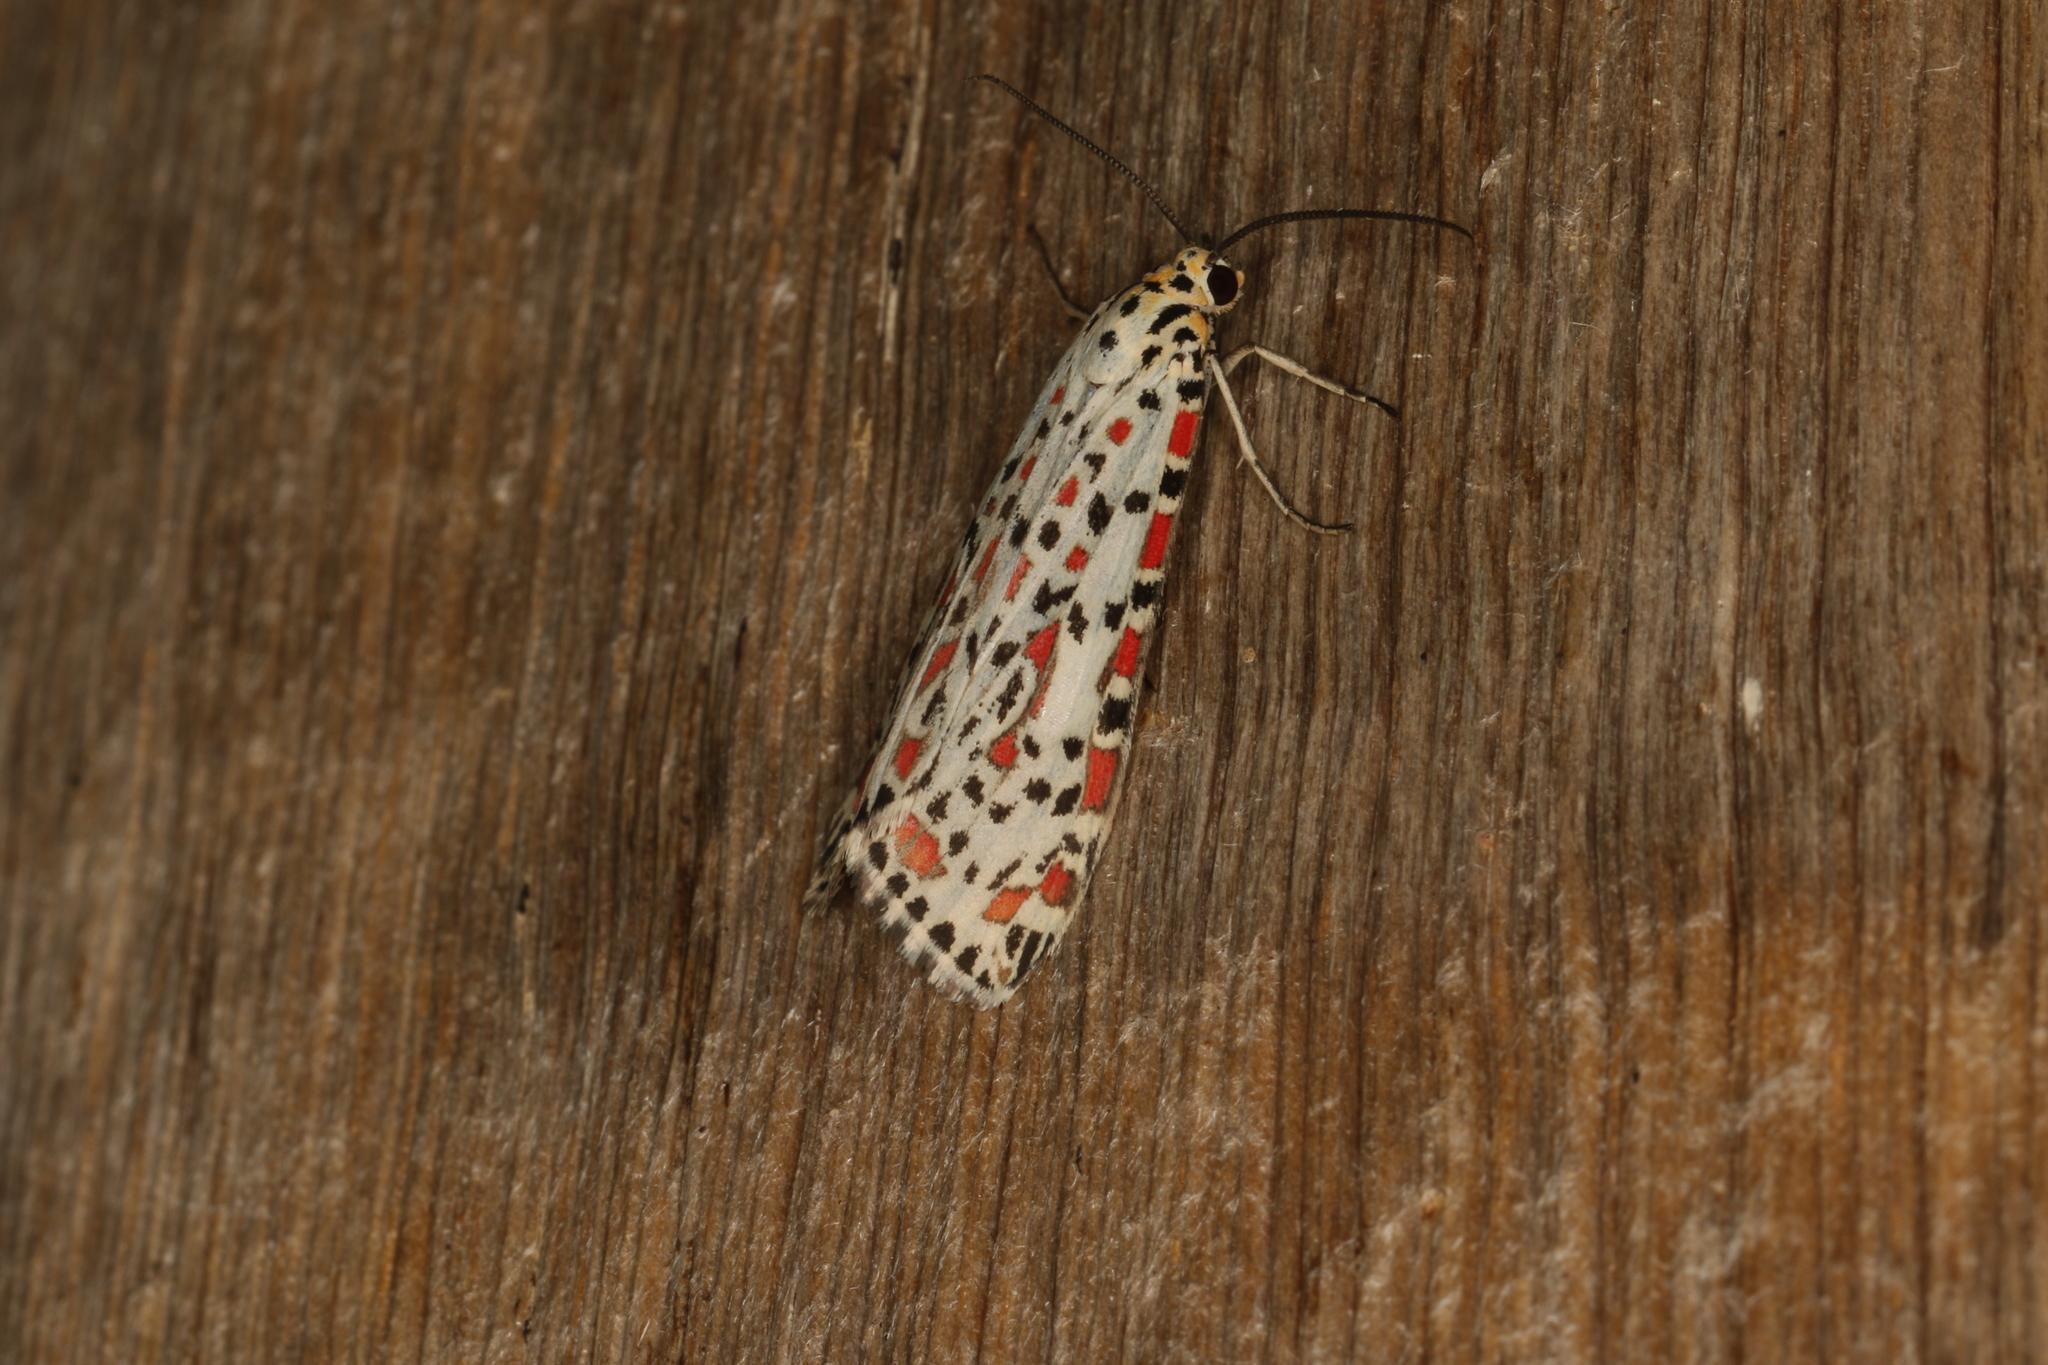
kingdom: Animalia
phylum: Arthropoda
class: Insecta
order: Lepidoptera
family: Erebidae
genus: Utetheisa
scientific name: Utetheisa pulchelloides
